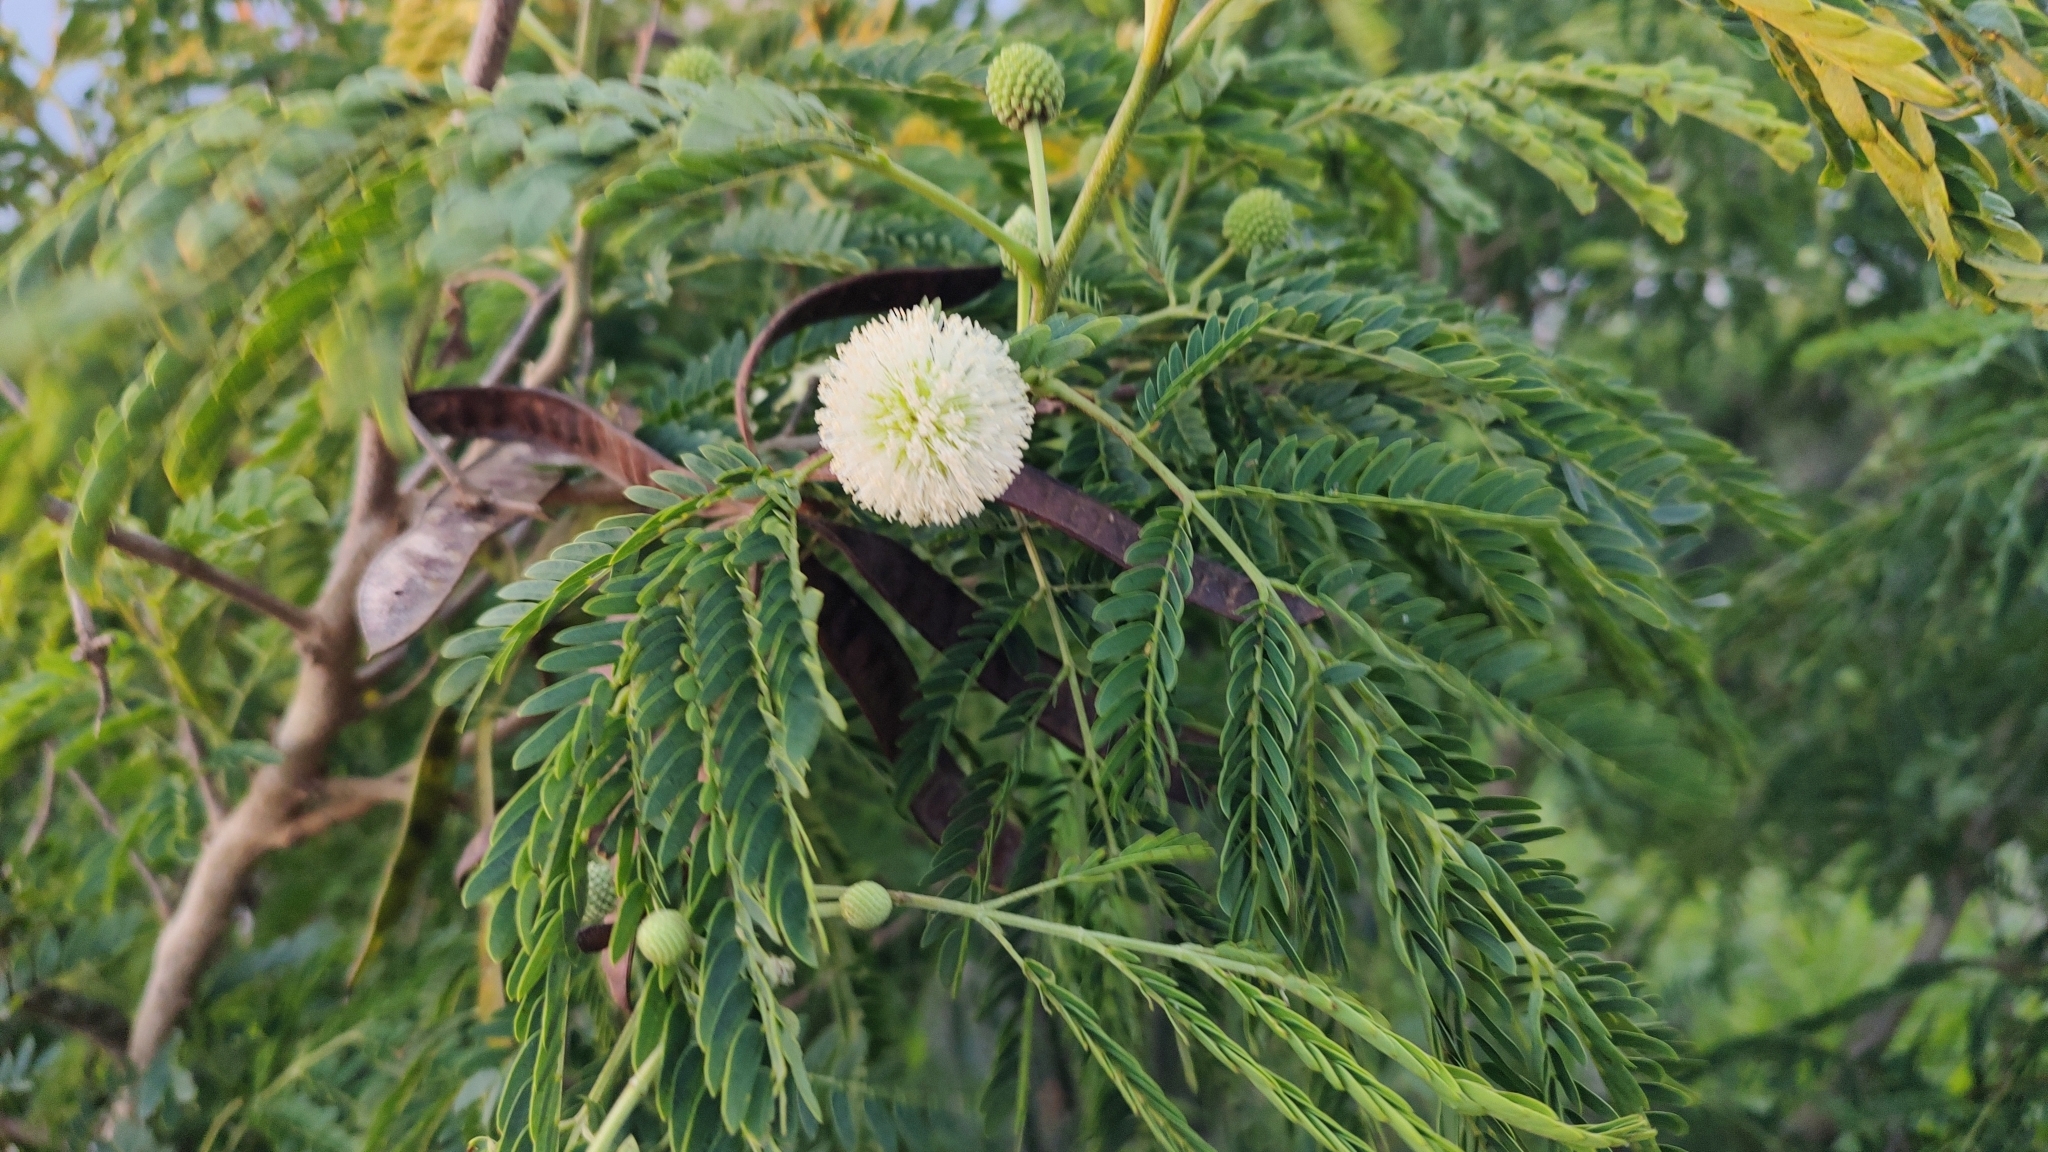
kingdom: Plantae
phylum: Tracheophyta
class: Magnoliopsida
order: Fabales
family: Fabaceae
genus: Leucaena
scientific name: Leucaena leucocephala
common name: White leadtree
